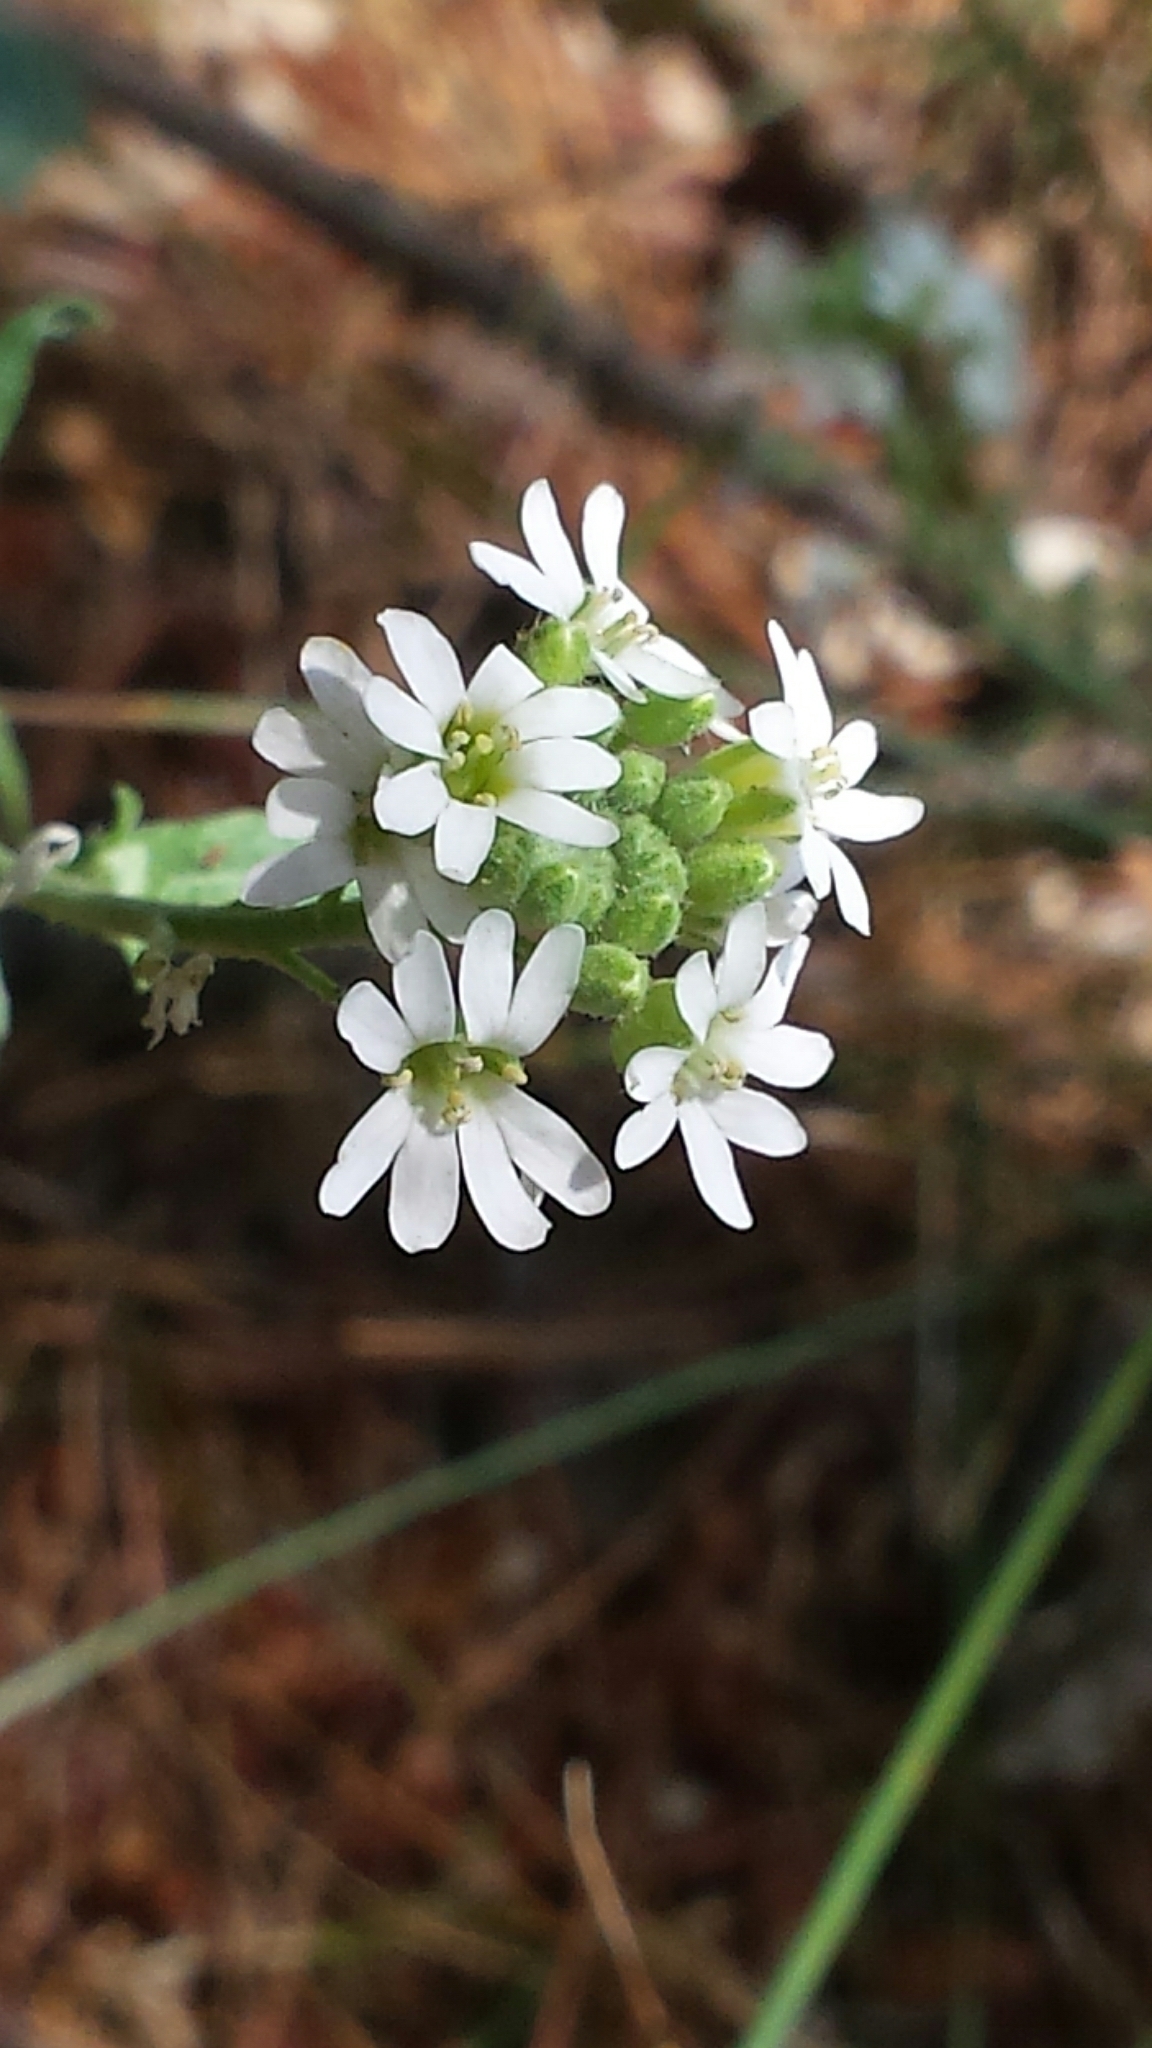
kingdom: Plantae
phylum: Tracheophyta
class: Magnoliopsida
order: Brassicales
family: Brassicaceae
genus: Berteroa
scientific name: Berteroa incana
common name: Hoary alison
